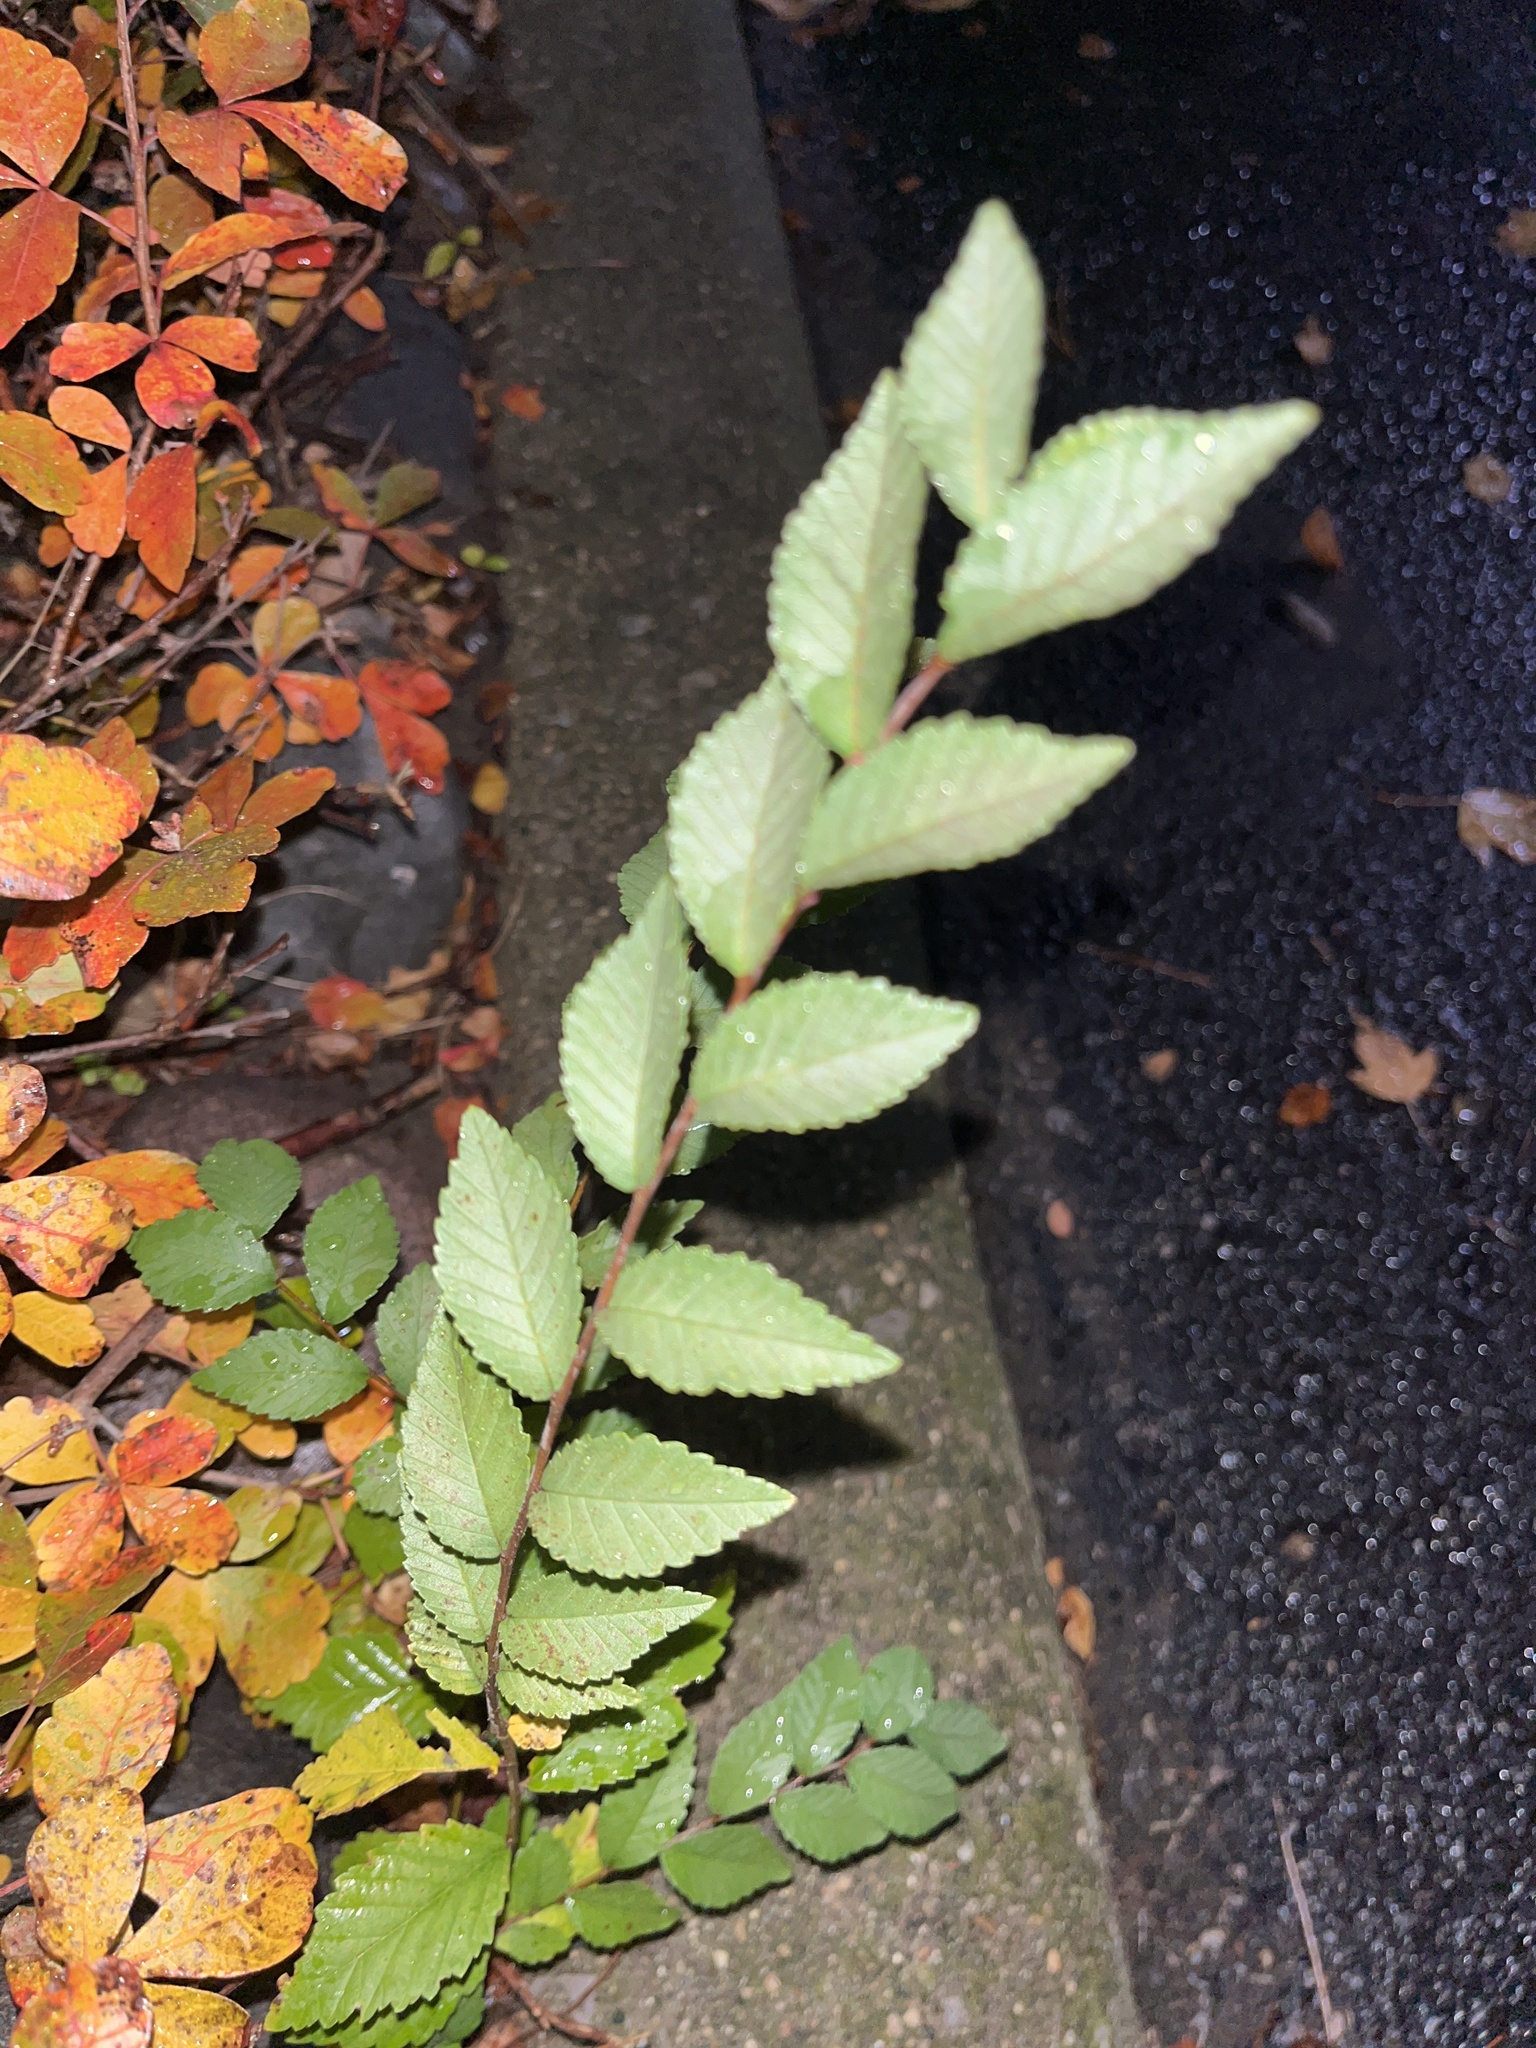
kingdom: Plantae
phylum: Tracheophyta
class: Magnoliopsida
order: Rosales
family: Ulmaceae
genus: Ulmus
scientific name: Ulmus pumila
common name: Siberian elm
